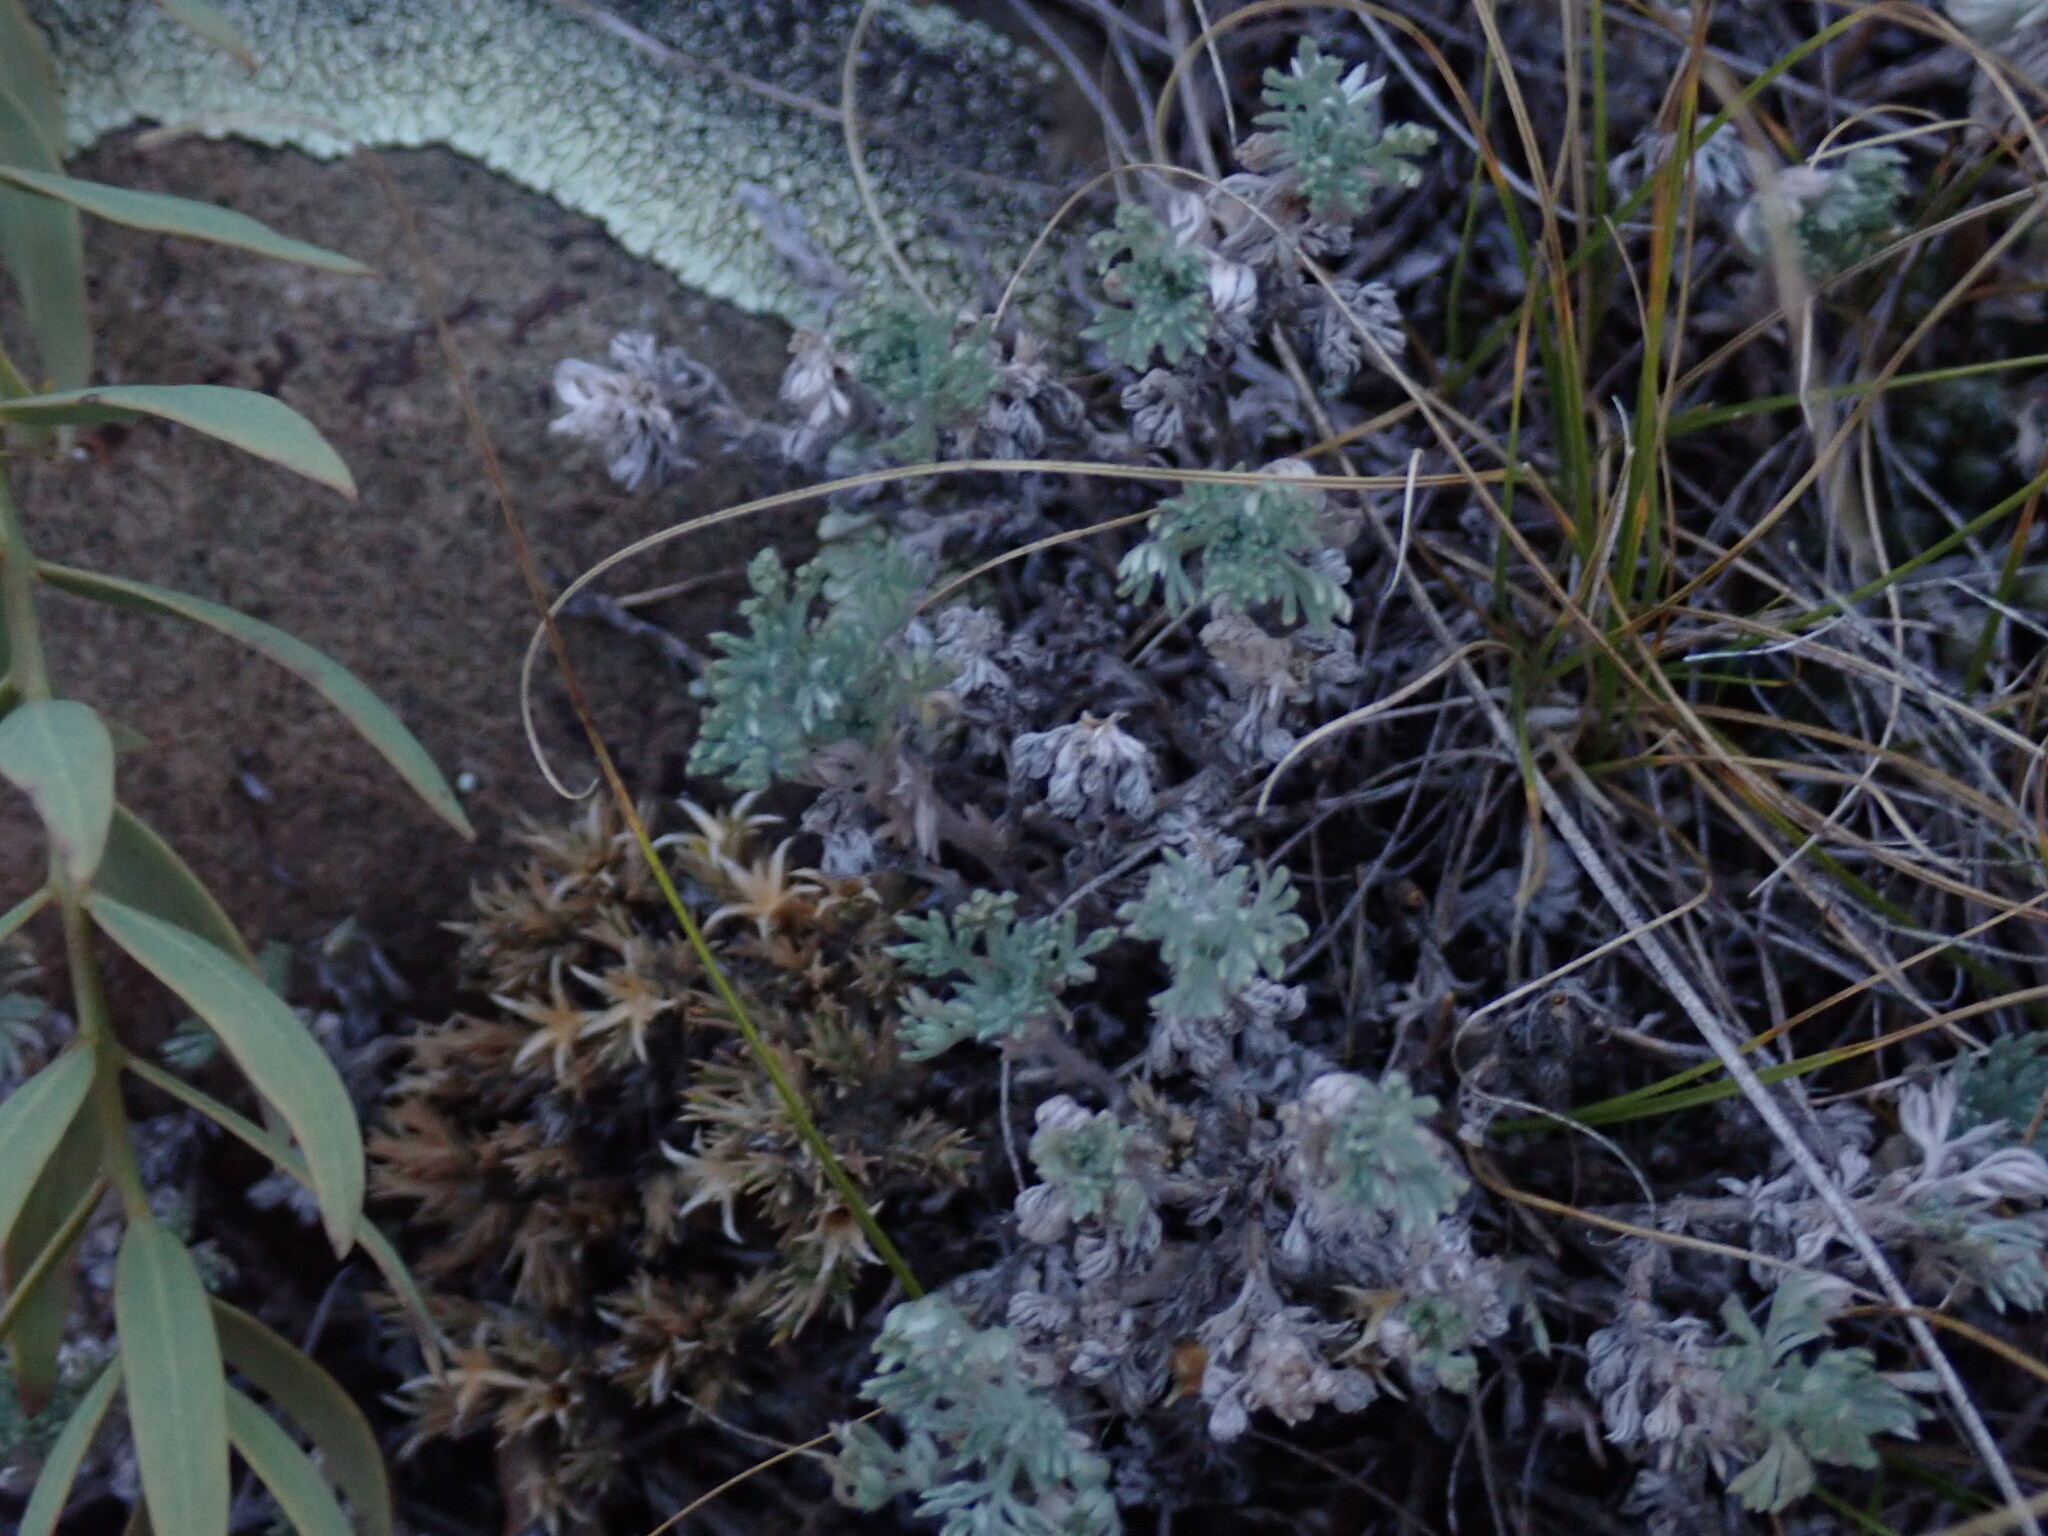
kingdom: Plantae
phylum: Tracheophyta
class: Magnoliopsida
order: Asterales
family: Asteraceae
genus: Artemisia
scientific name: Artemisia frigida
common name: Prairie sagewort
